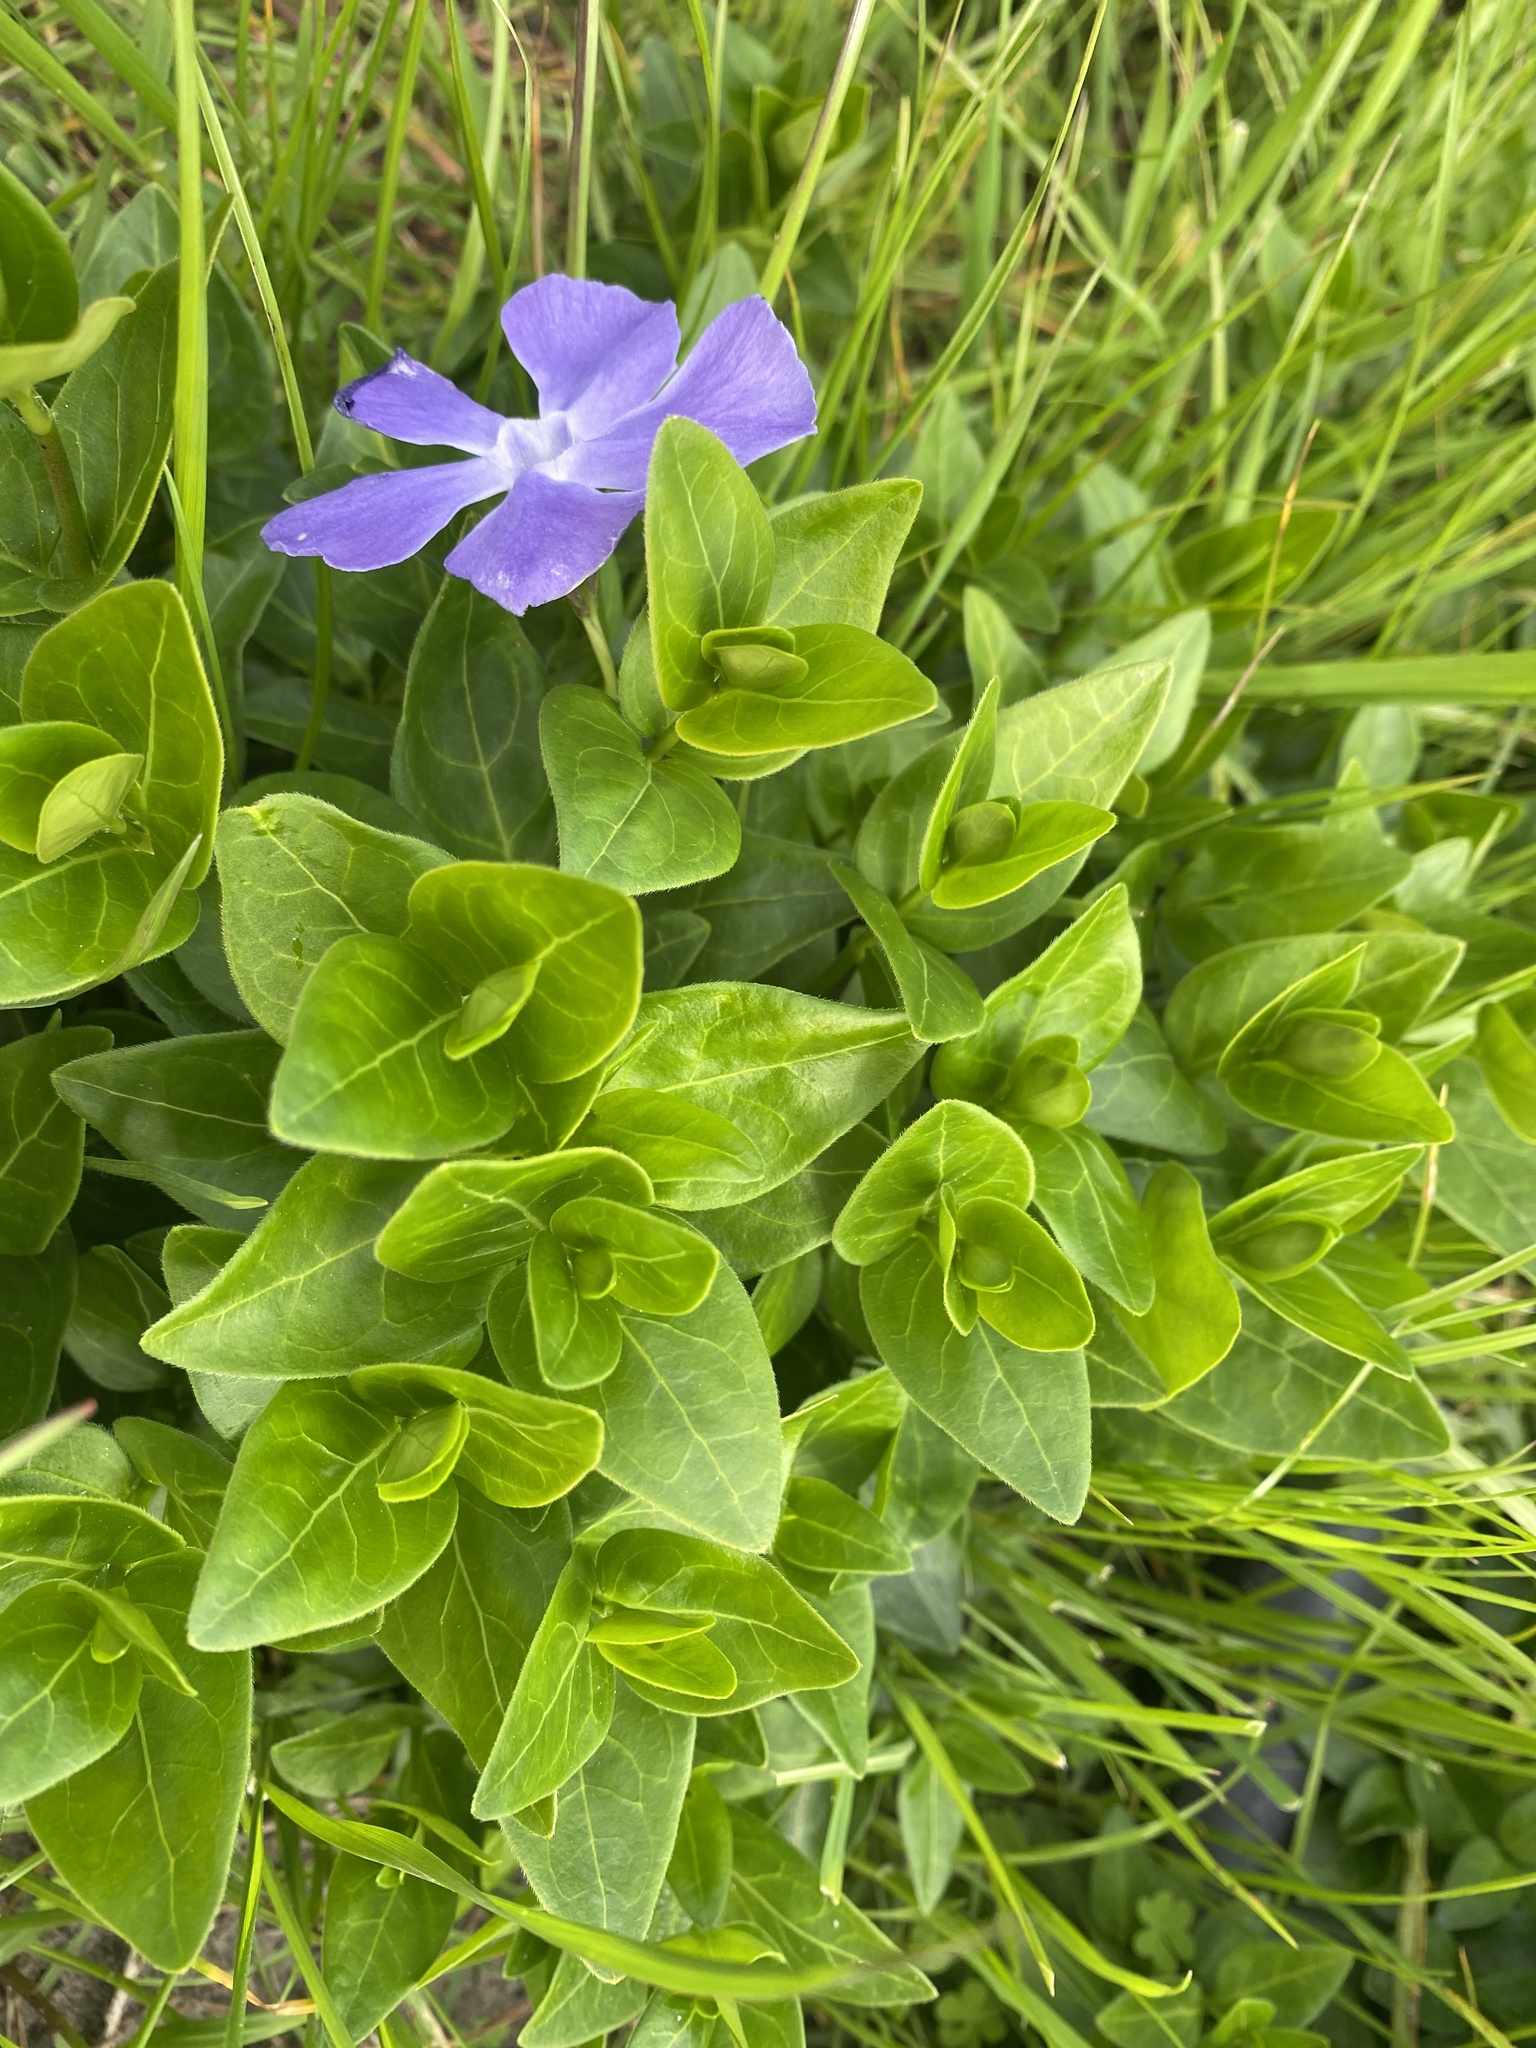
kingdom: Plantae
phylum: Tracheophyta
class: Magnoliopsida
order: Gentianales
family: Apocynaceae
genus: Vinca
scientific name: Vinca major
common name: Greater periwinkle
